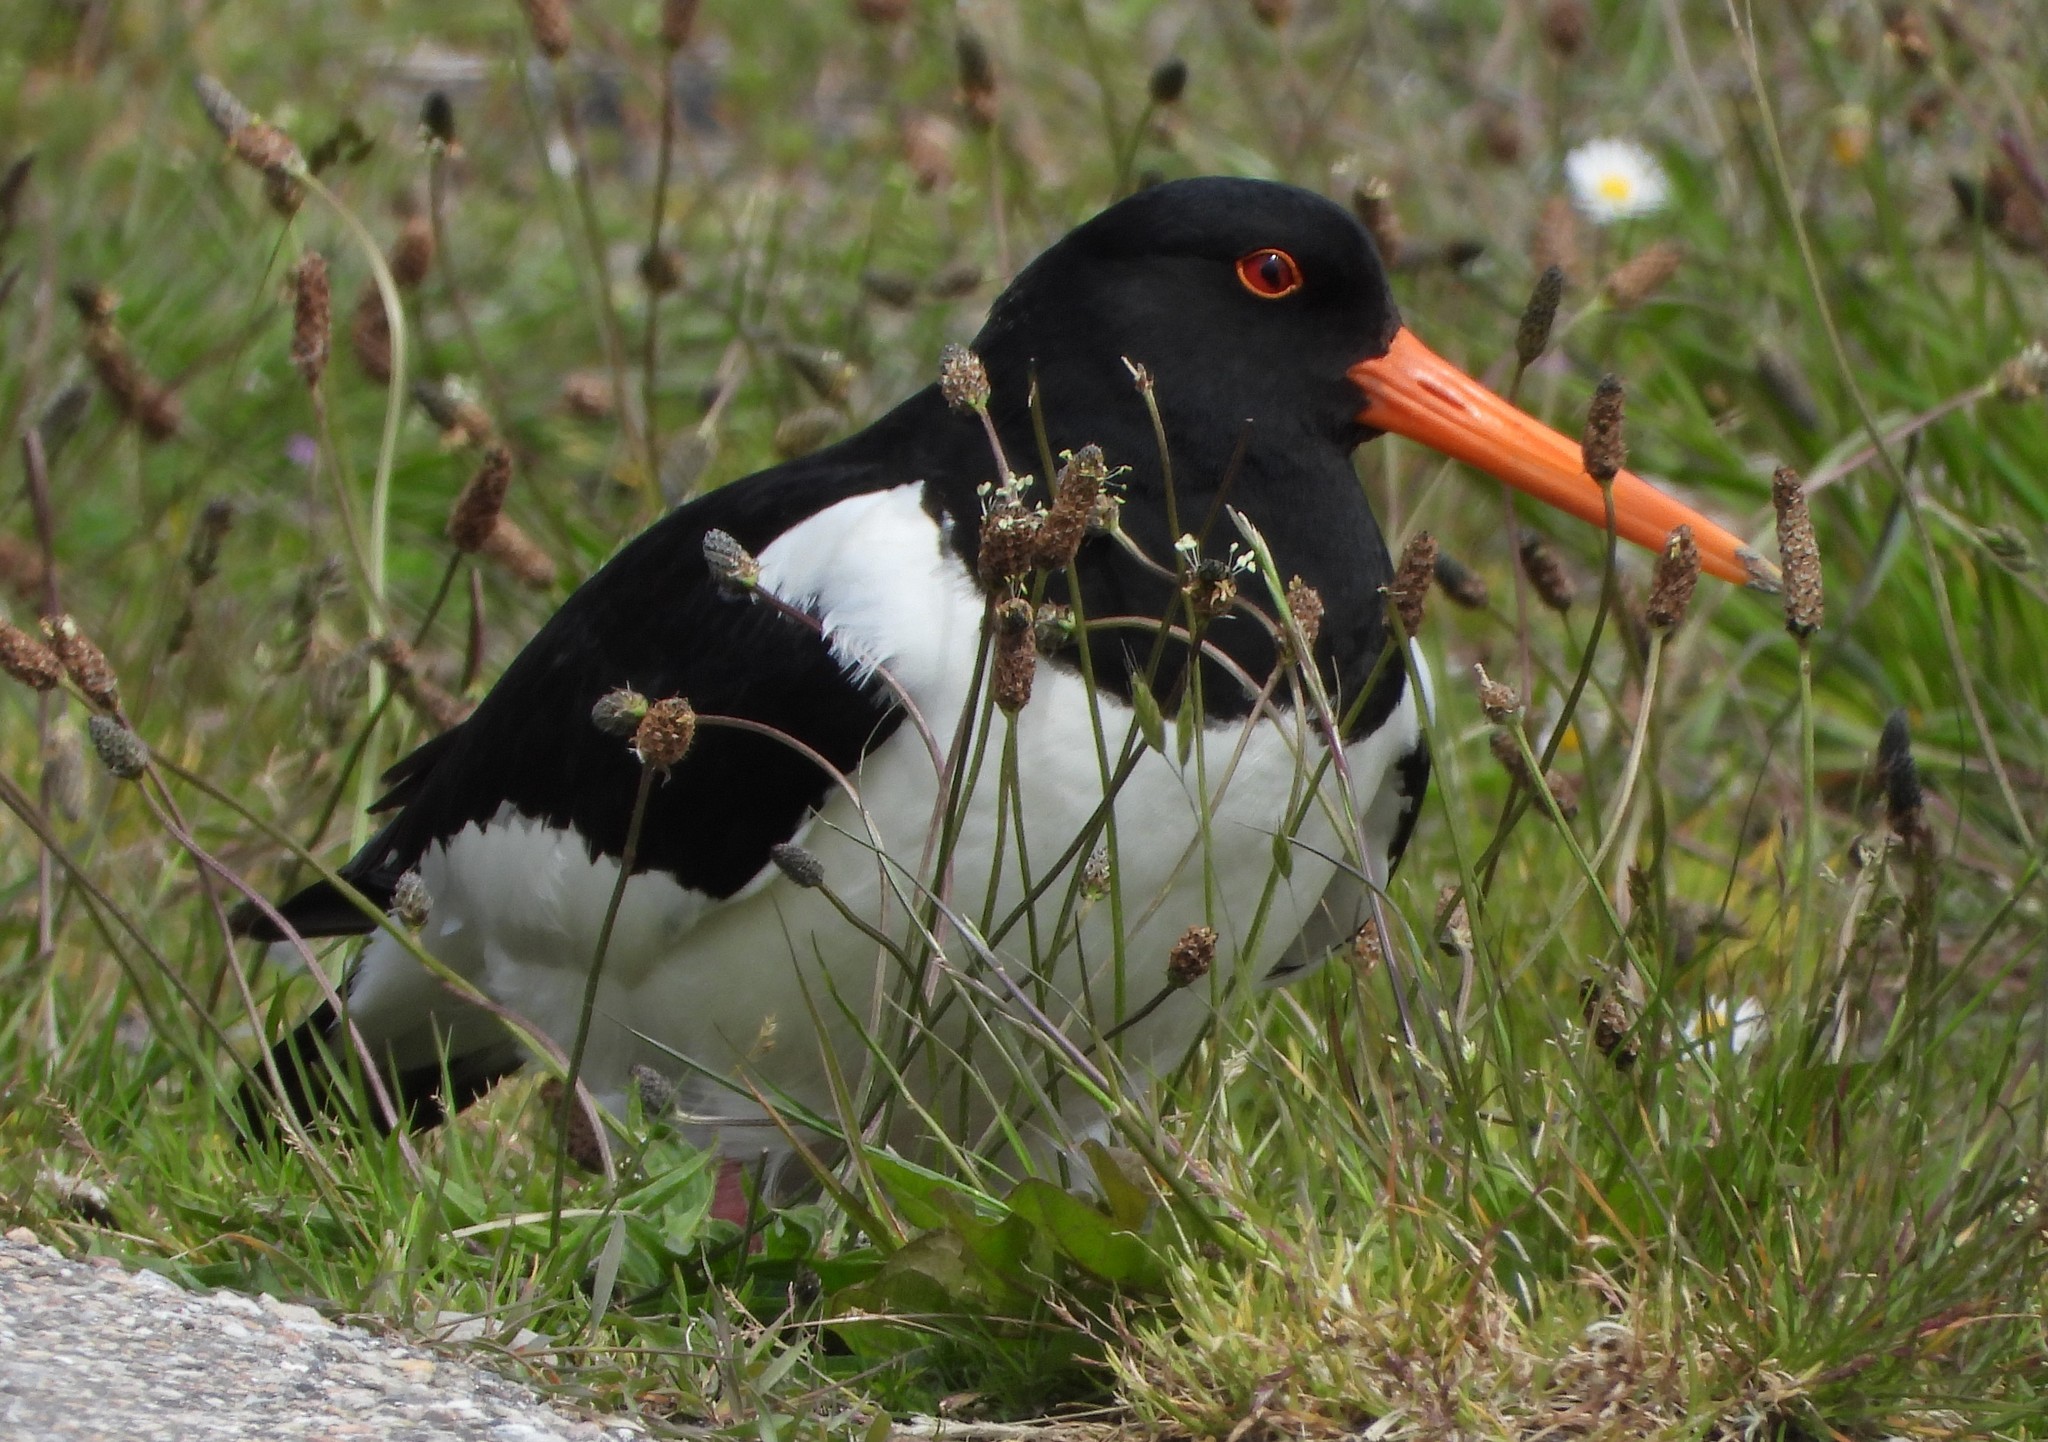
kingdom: Animalia
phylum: Chordata
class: Aves
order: Charadriiformes
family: Haematopodidae
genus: Haematopus
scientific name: Haematopus ostralegus
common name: Eurasian oystercatcher
